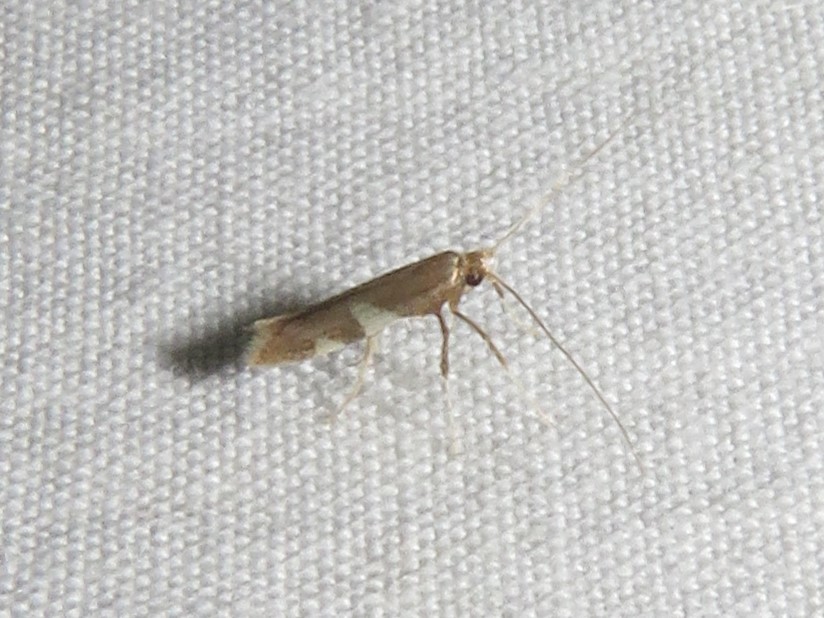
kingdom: Animalia
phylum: Arthropoda
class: Insecta
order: Lepidoptera
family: Gracillariidae
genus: Caloptilia
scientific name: Caloptilia bimaculatella
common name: Maple caloptilia moth
